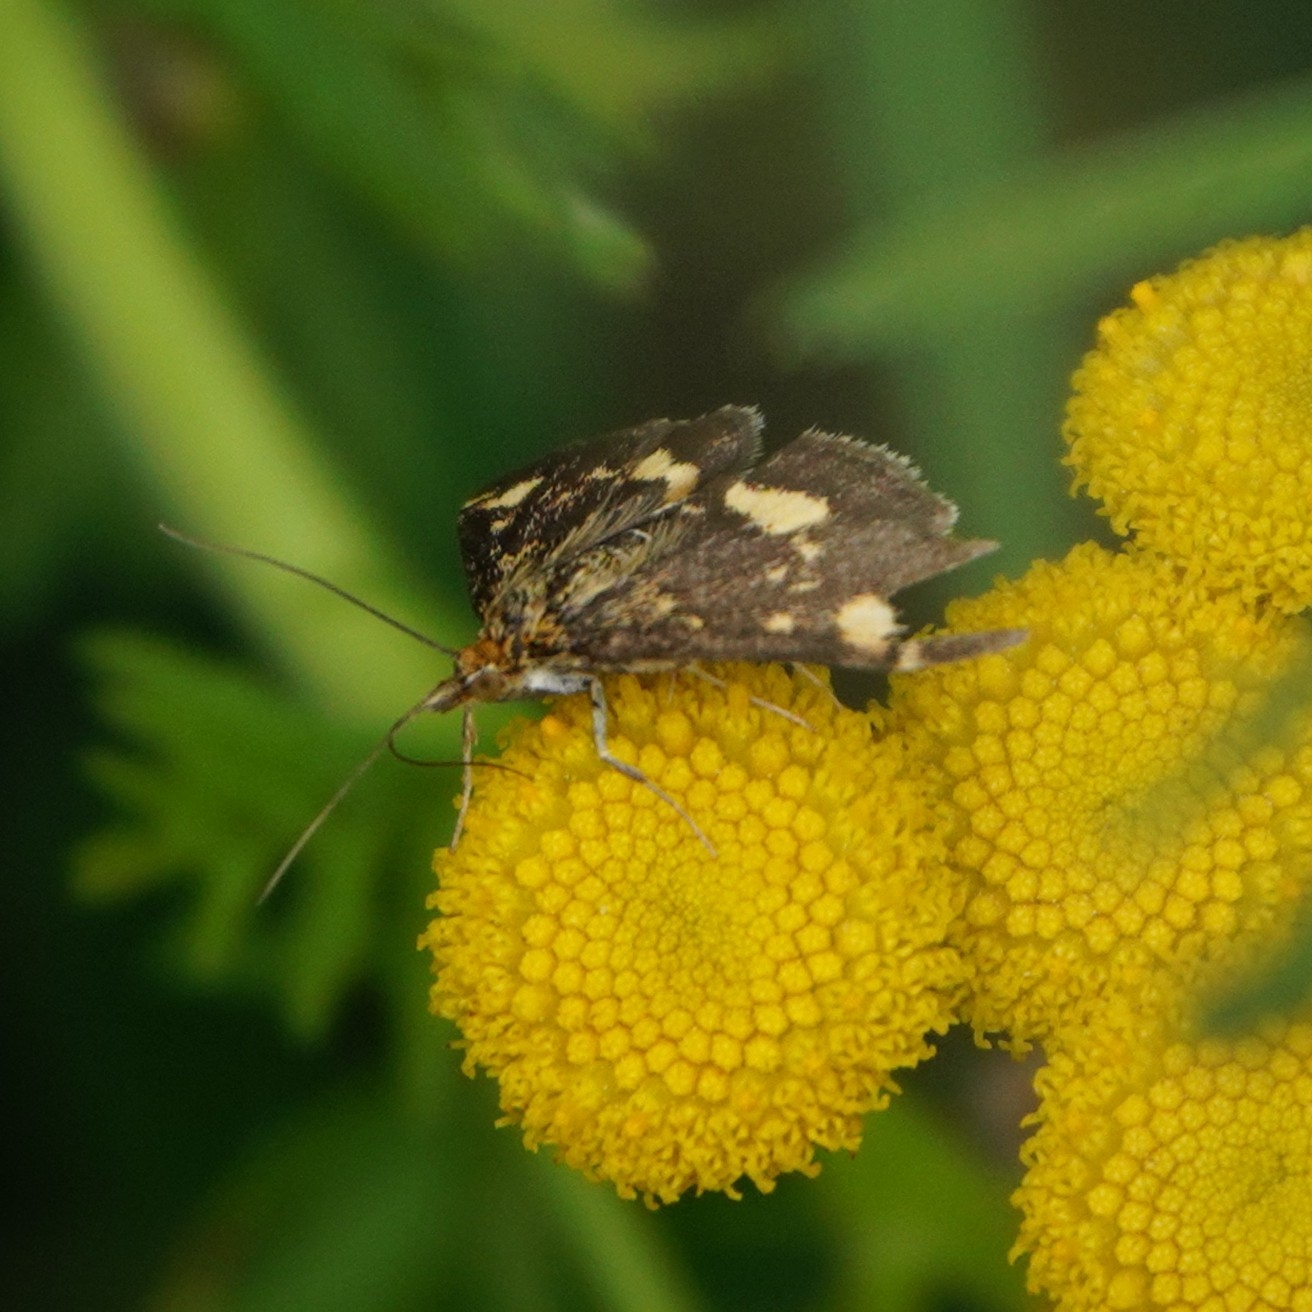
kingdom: Animalia
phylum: Arthropoda
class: Insecta
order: Lepidoptera
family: Crambidae
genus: Pyrausta
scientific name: Pyrausta aurata
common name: Small purple & gold
